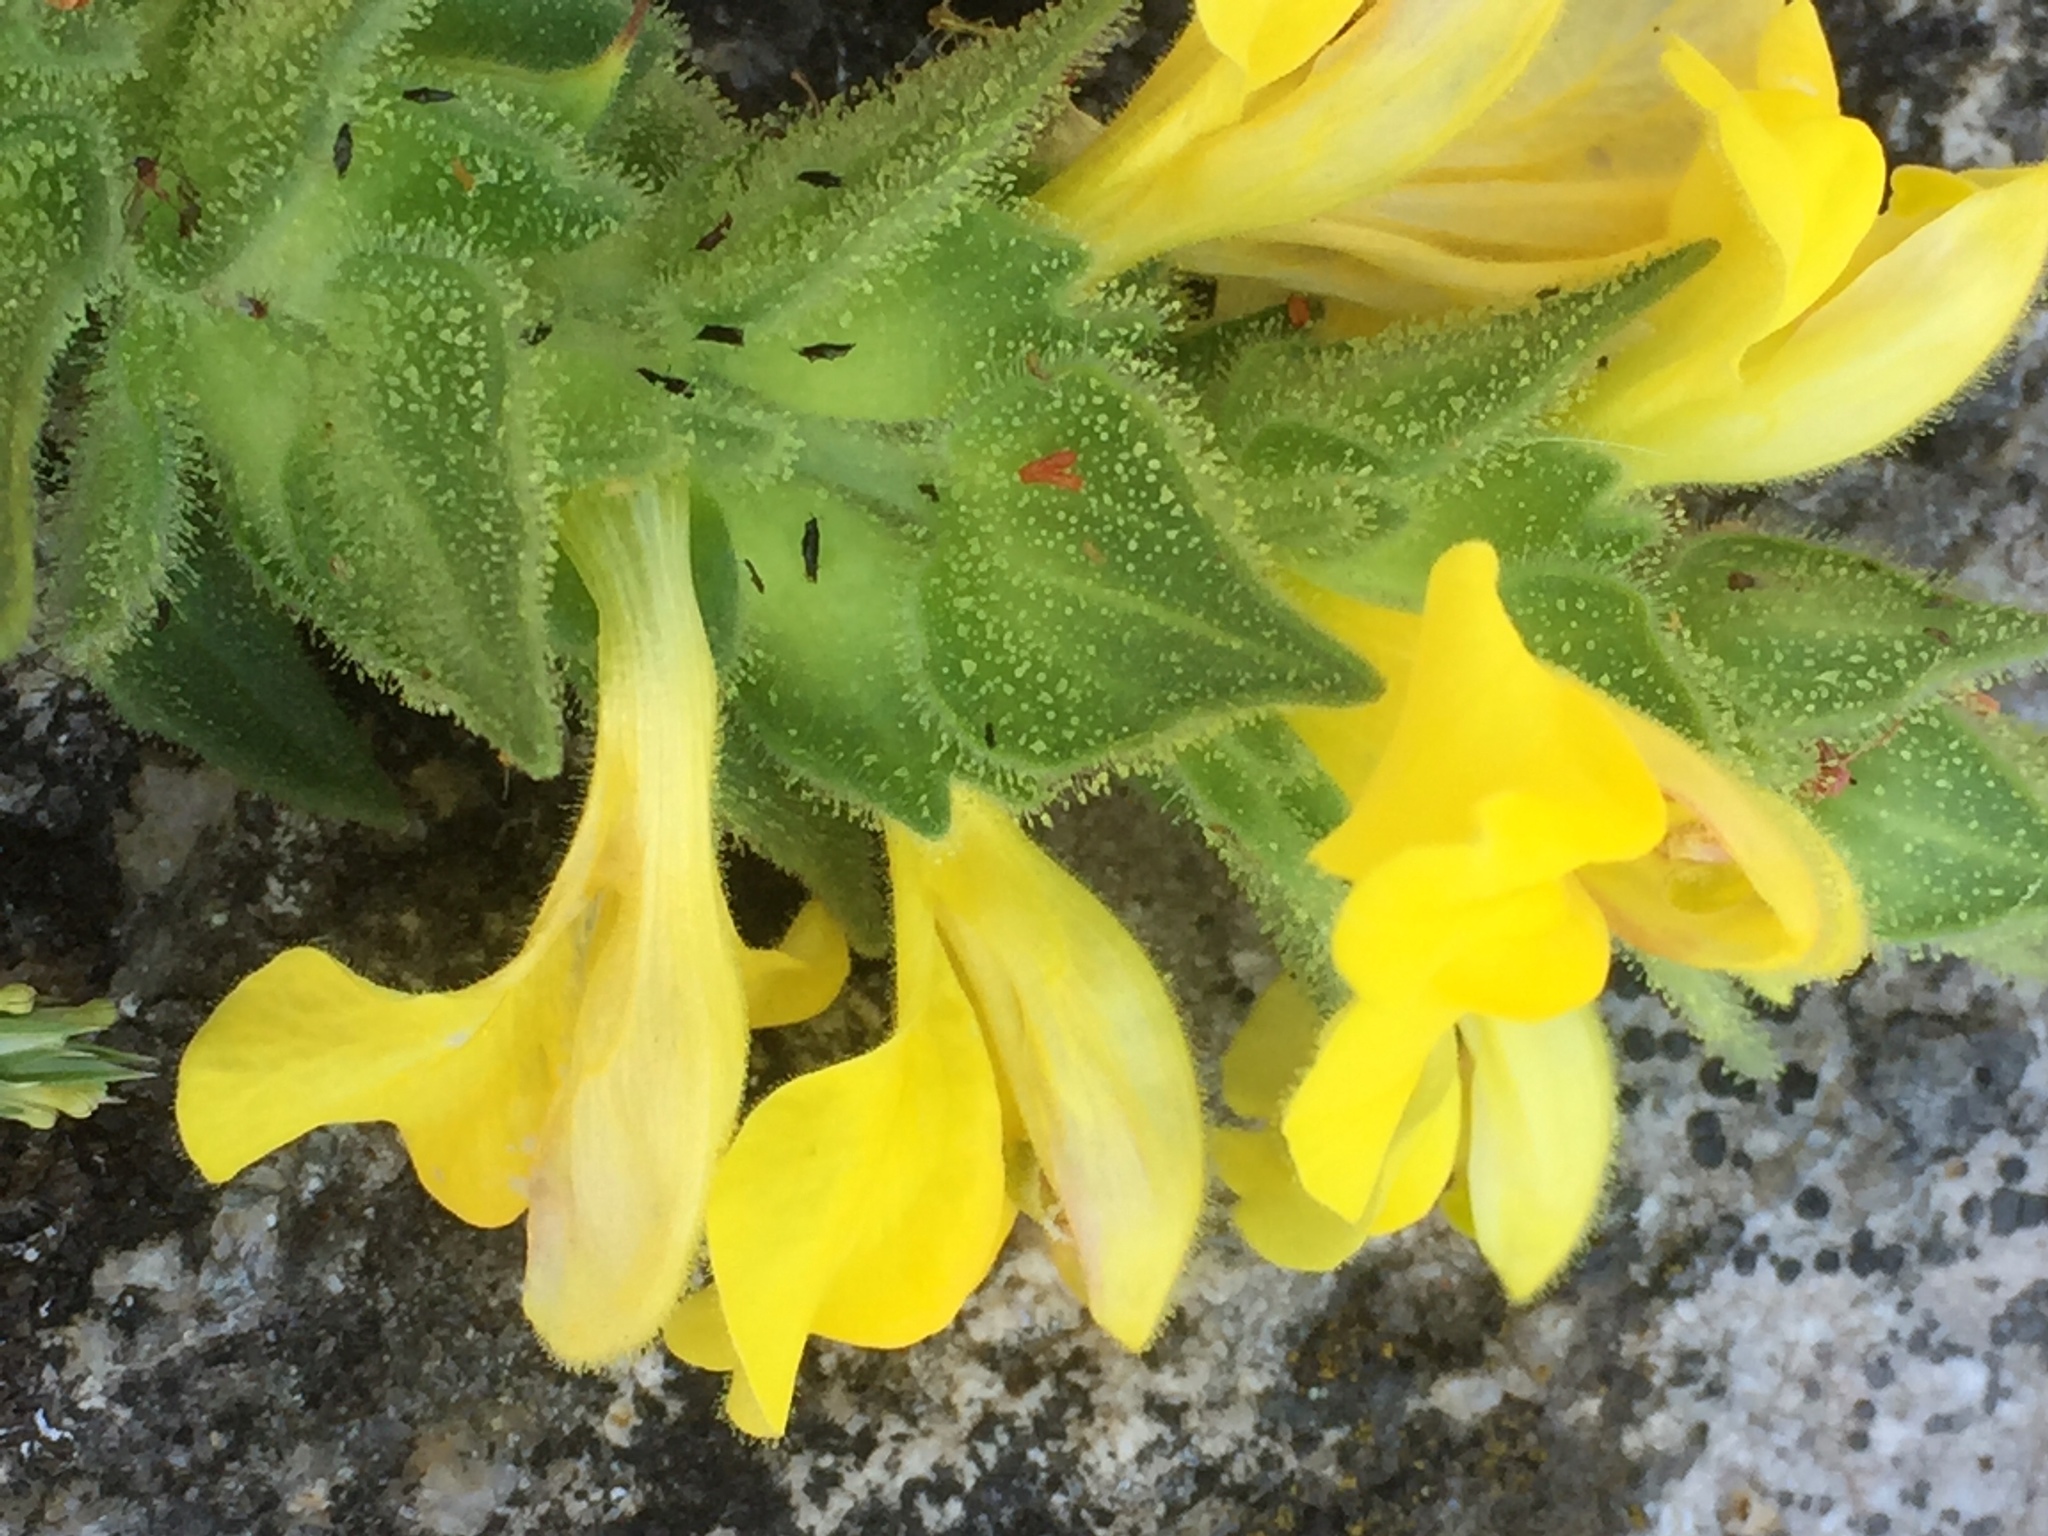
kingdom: Plantae
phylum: Tracheophyta
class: Magnoliopsida
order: Lamiales
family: Orobanchaceae
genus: Bellardia
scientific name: Bellardia trixago
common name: Mediterranean lineseed
